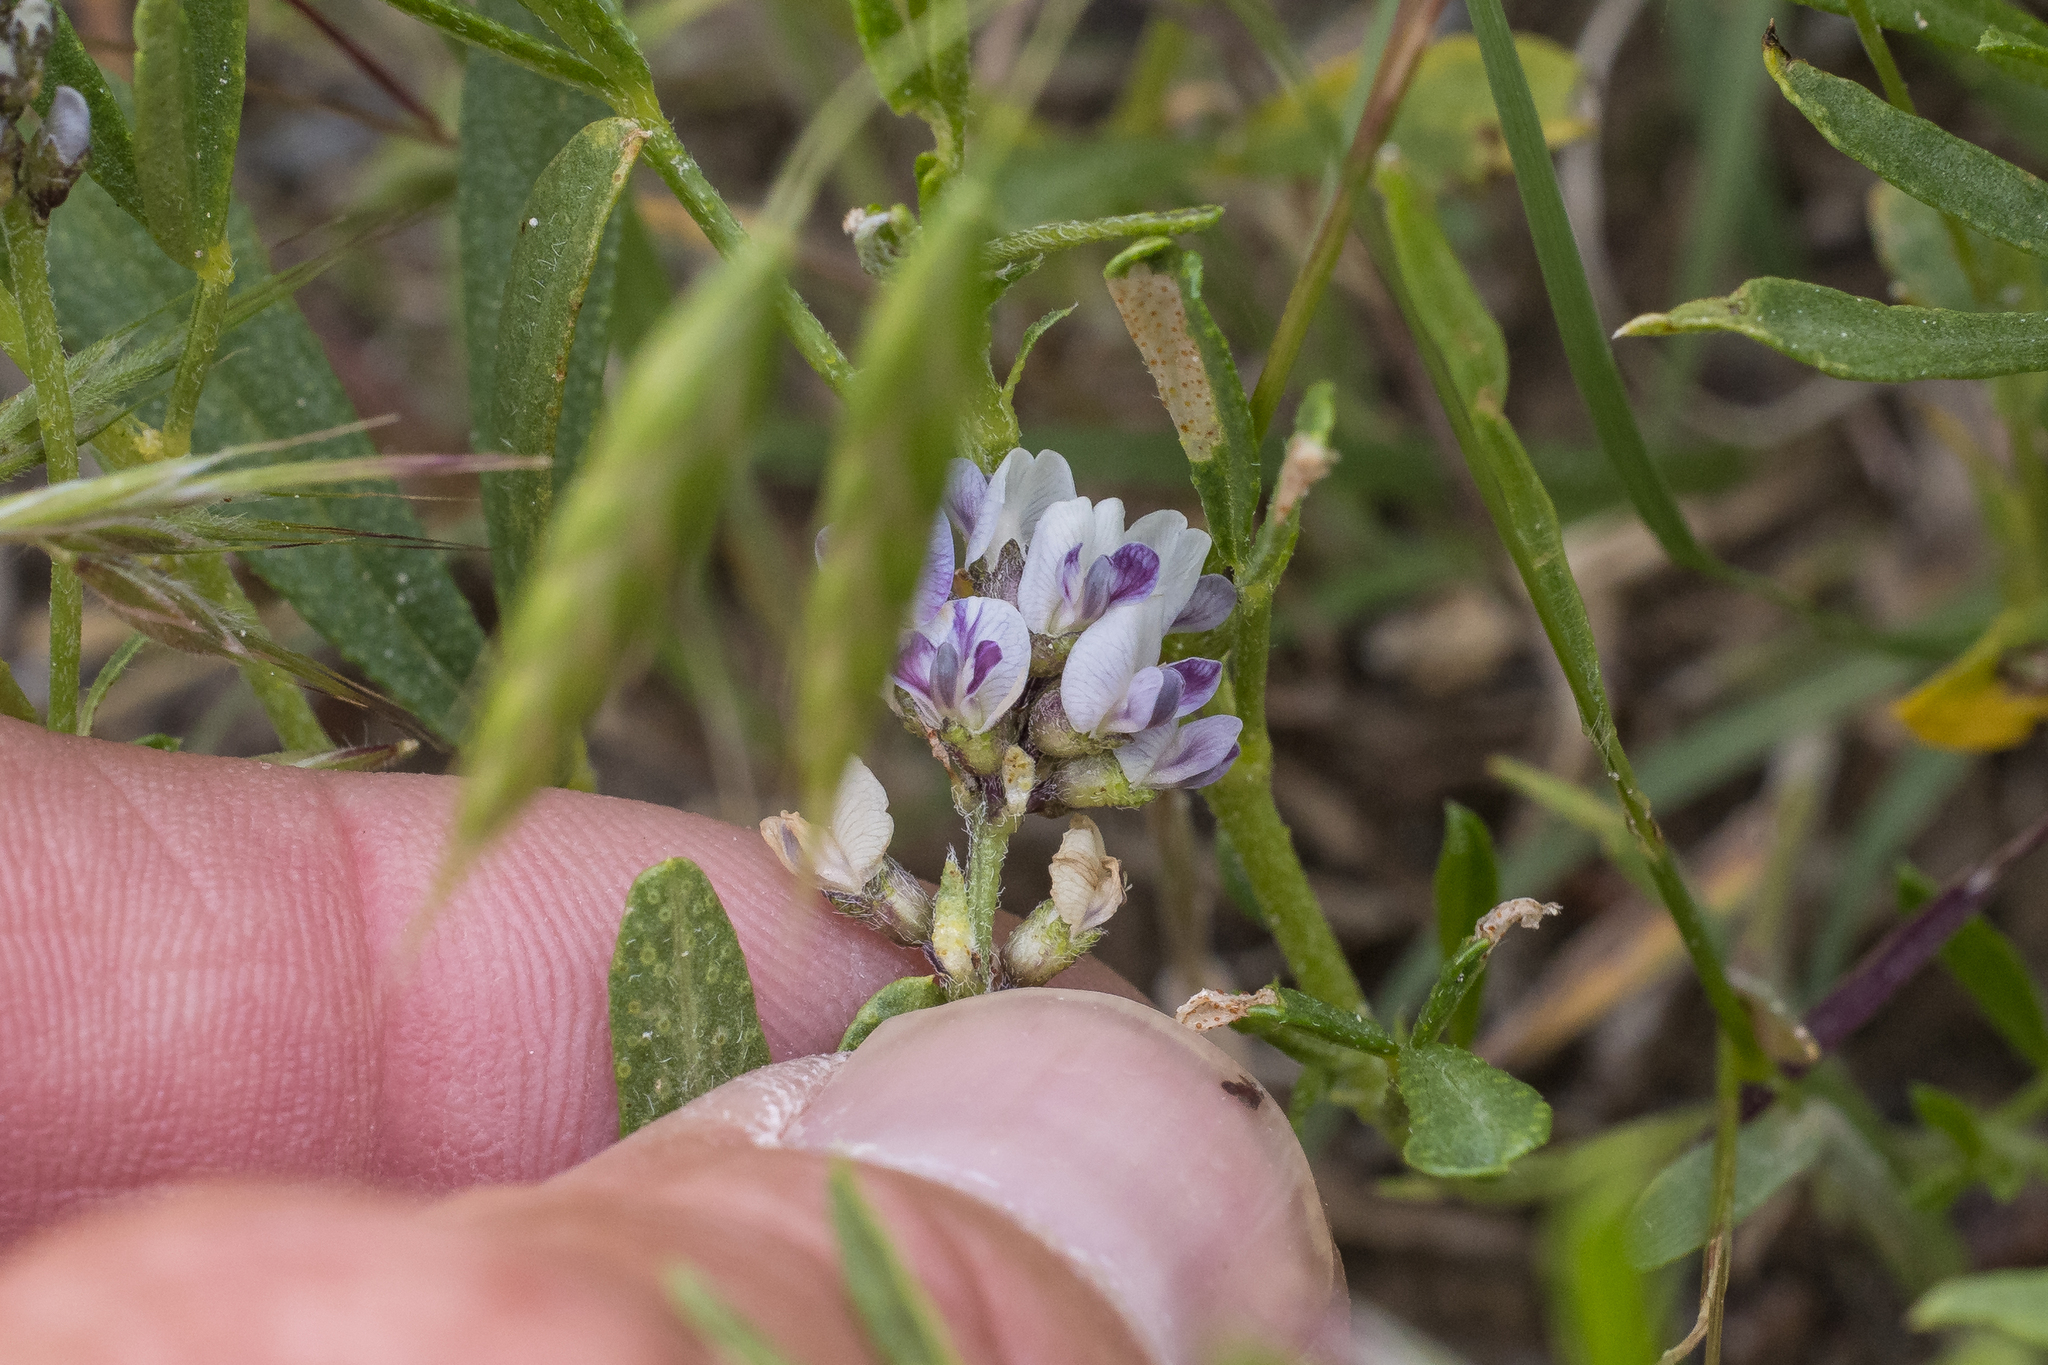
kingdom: Plantae
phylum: Tracheophyta
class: Magnoliopsida
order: Fabales
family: Fabaceae
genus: Ladeania
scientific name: Ladeania lanceolata
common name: Dune scurf-pea
